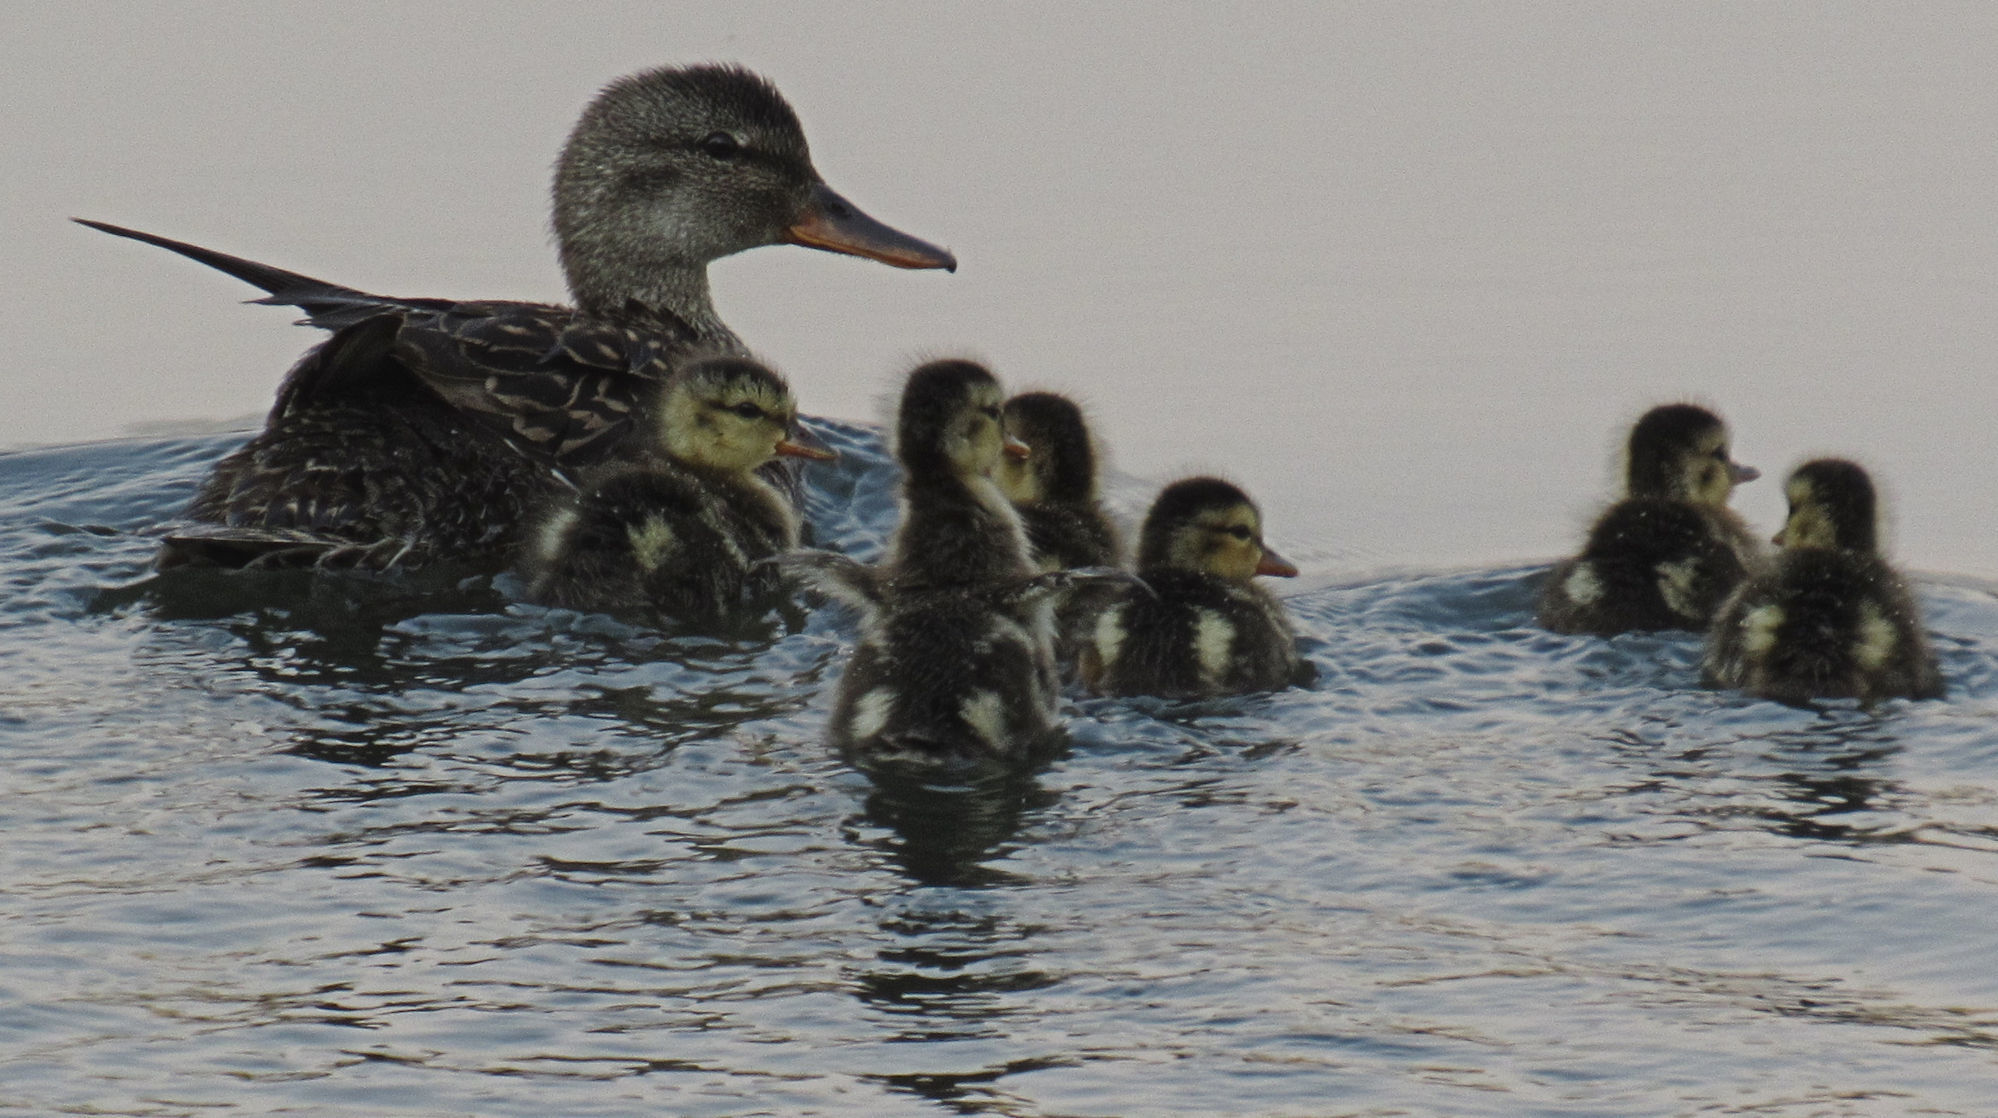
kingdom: Animalia
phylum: Chordata
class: Aves
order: Anseriformes
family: Anatidae
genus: Mareca
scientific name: Mareca strepera
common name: Gadwall
